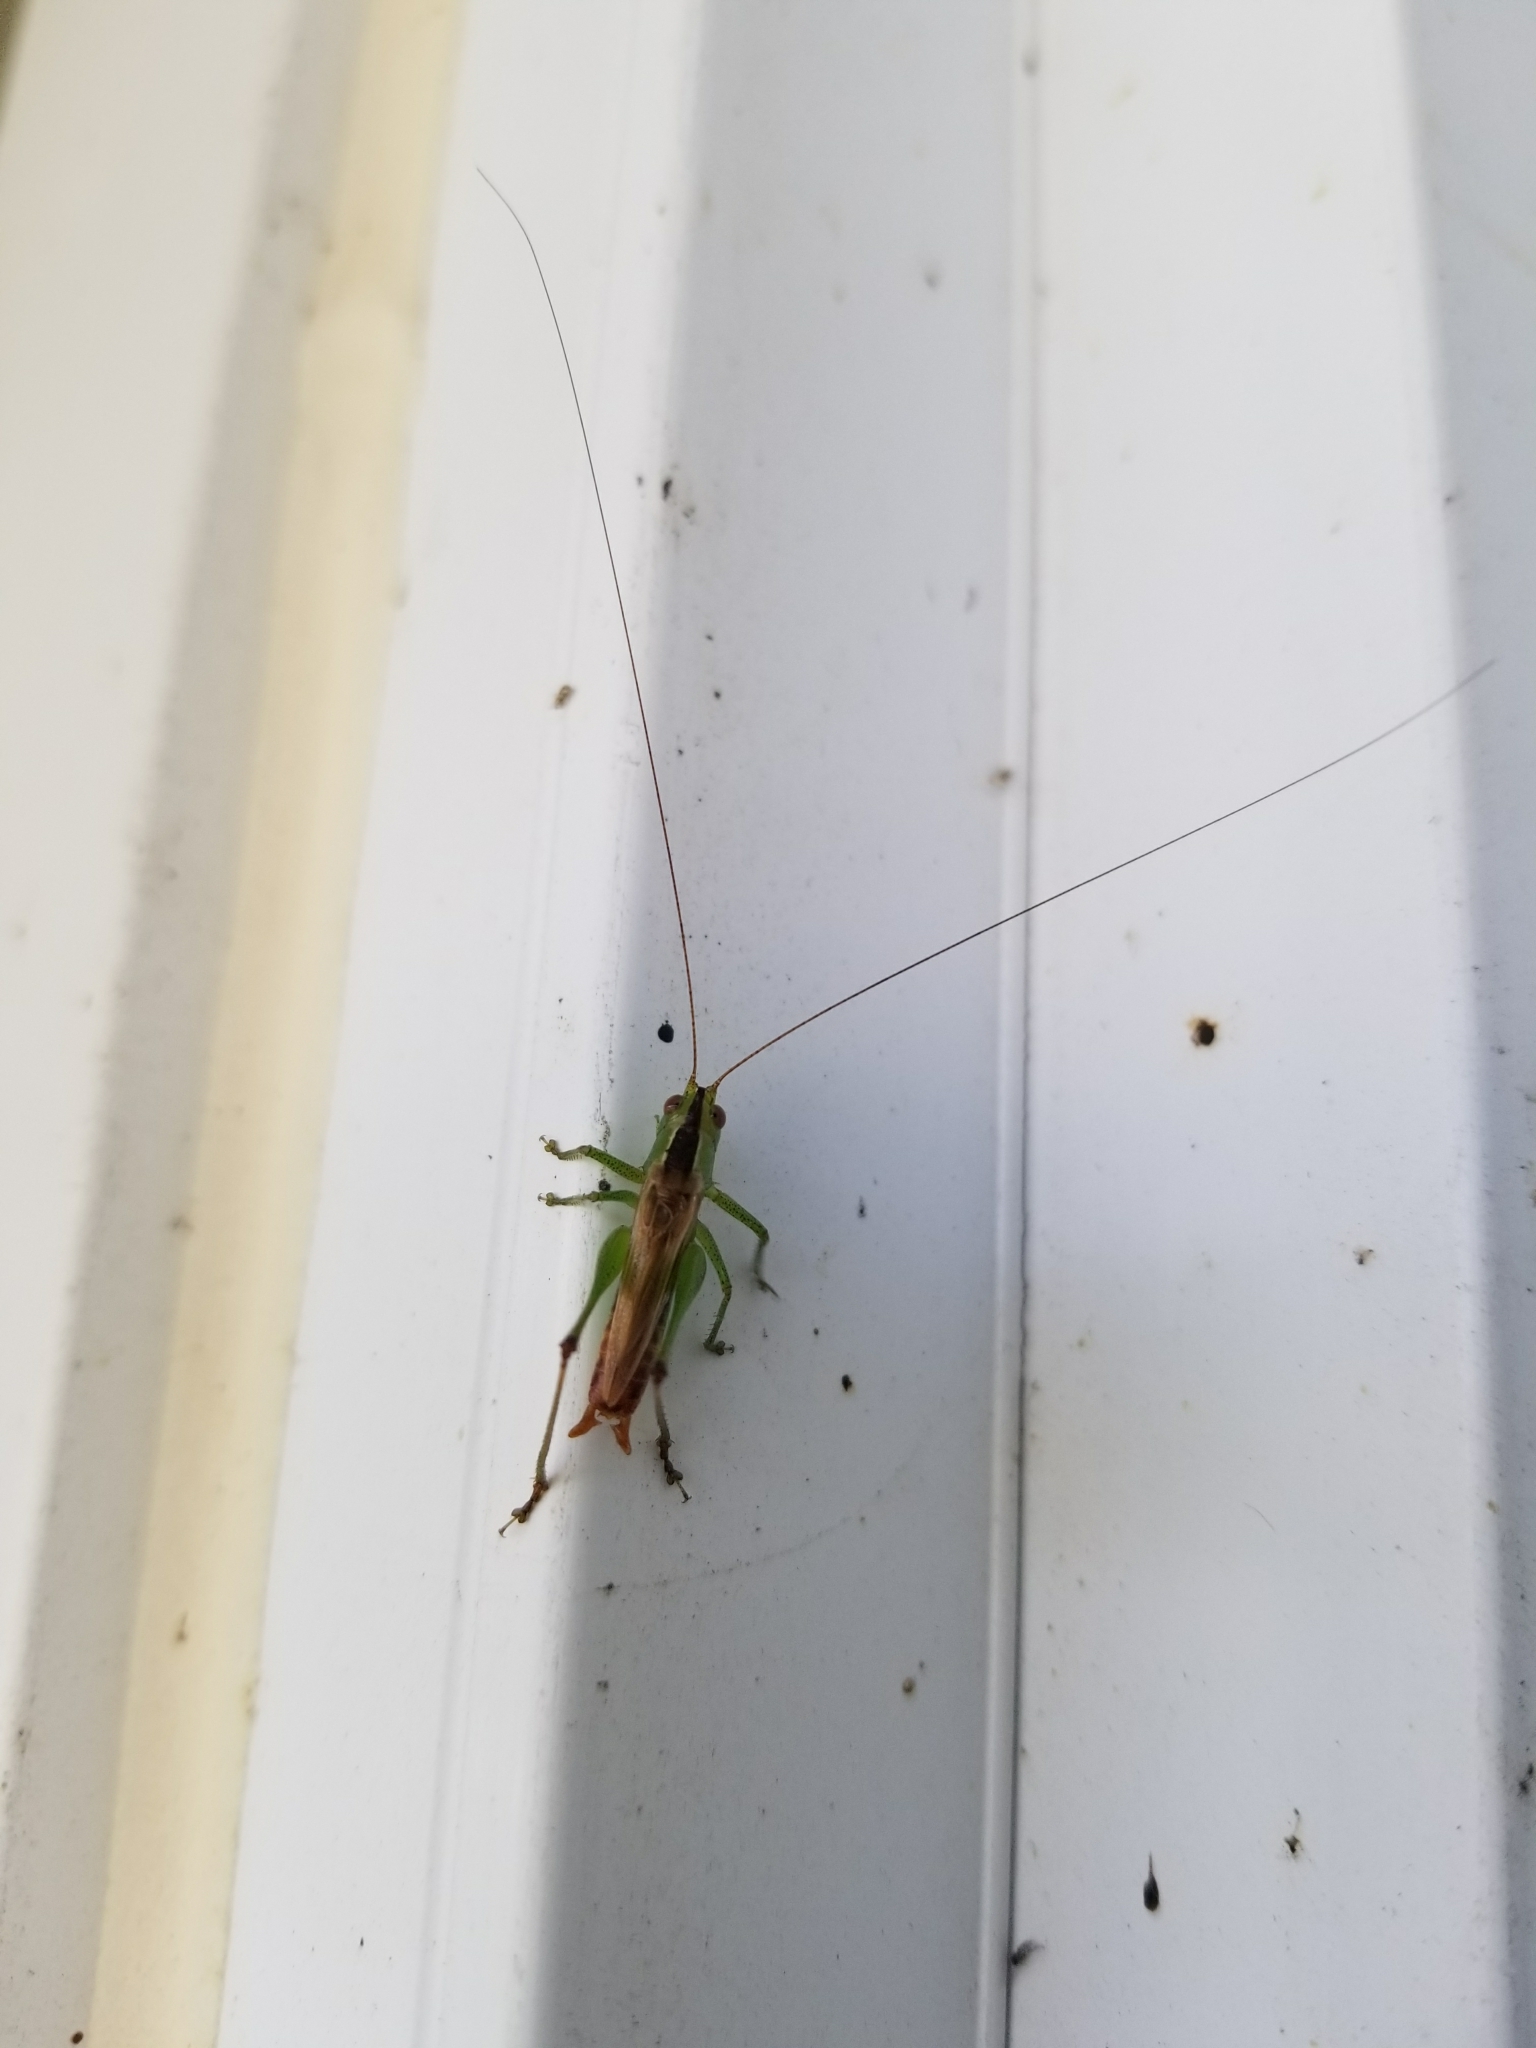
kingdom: Animalia
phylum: Arthropoda
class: Insecta
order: Orthoptera
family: Tettigoniidae
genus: Conocephalus
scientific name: Conocephalus brevipennis
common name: Short-winged meadow katydid
